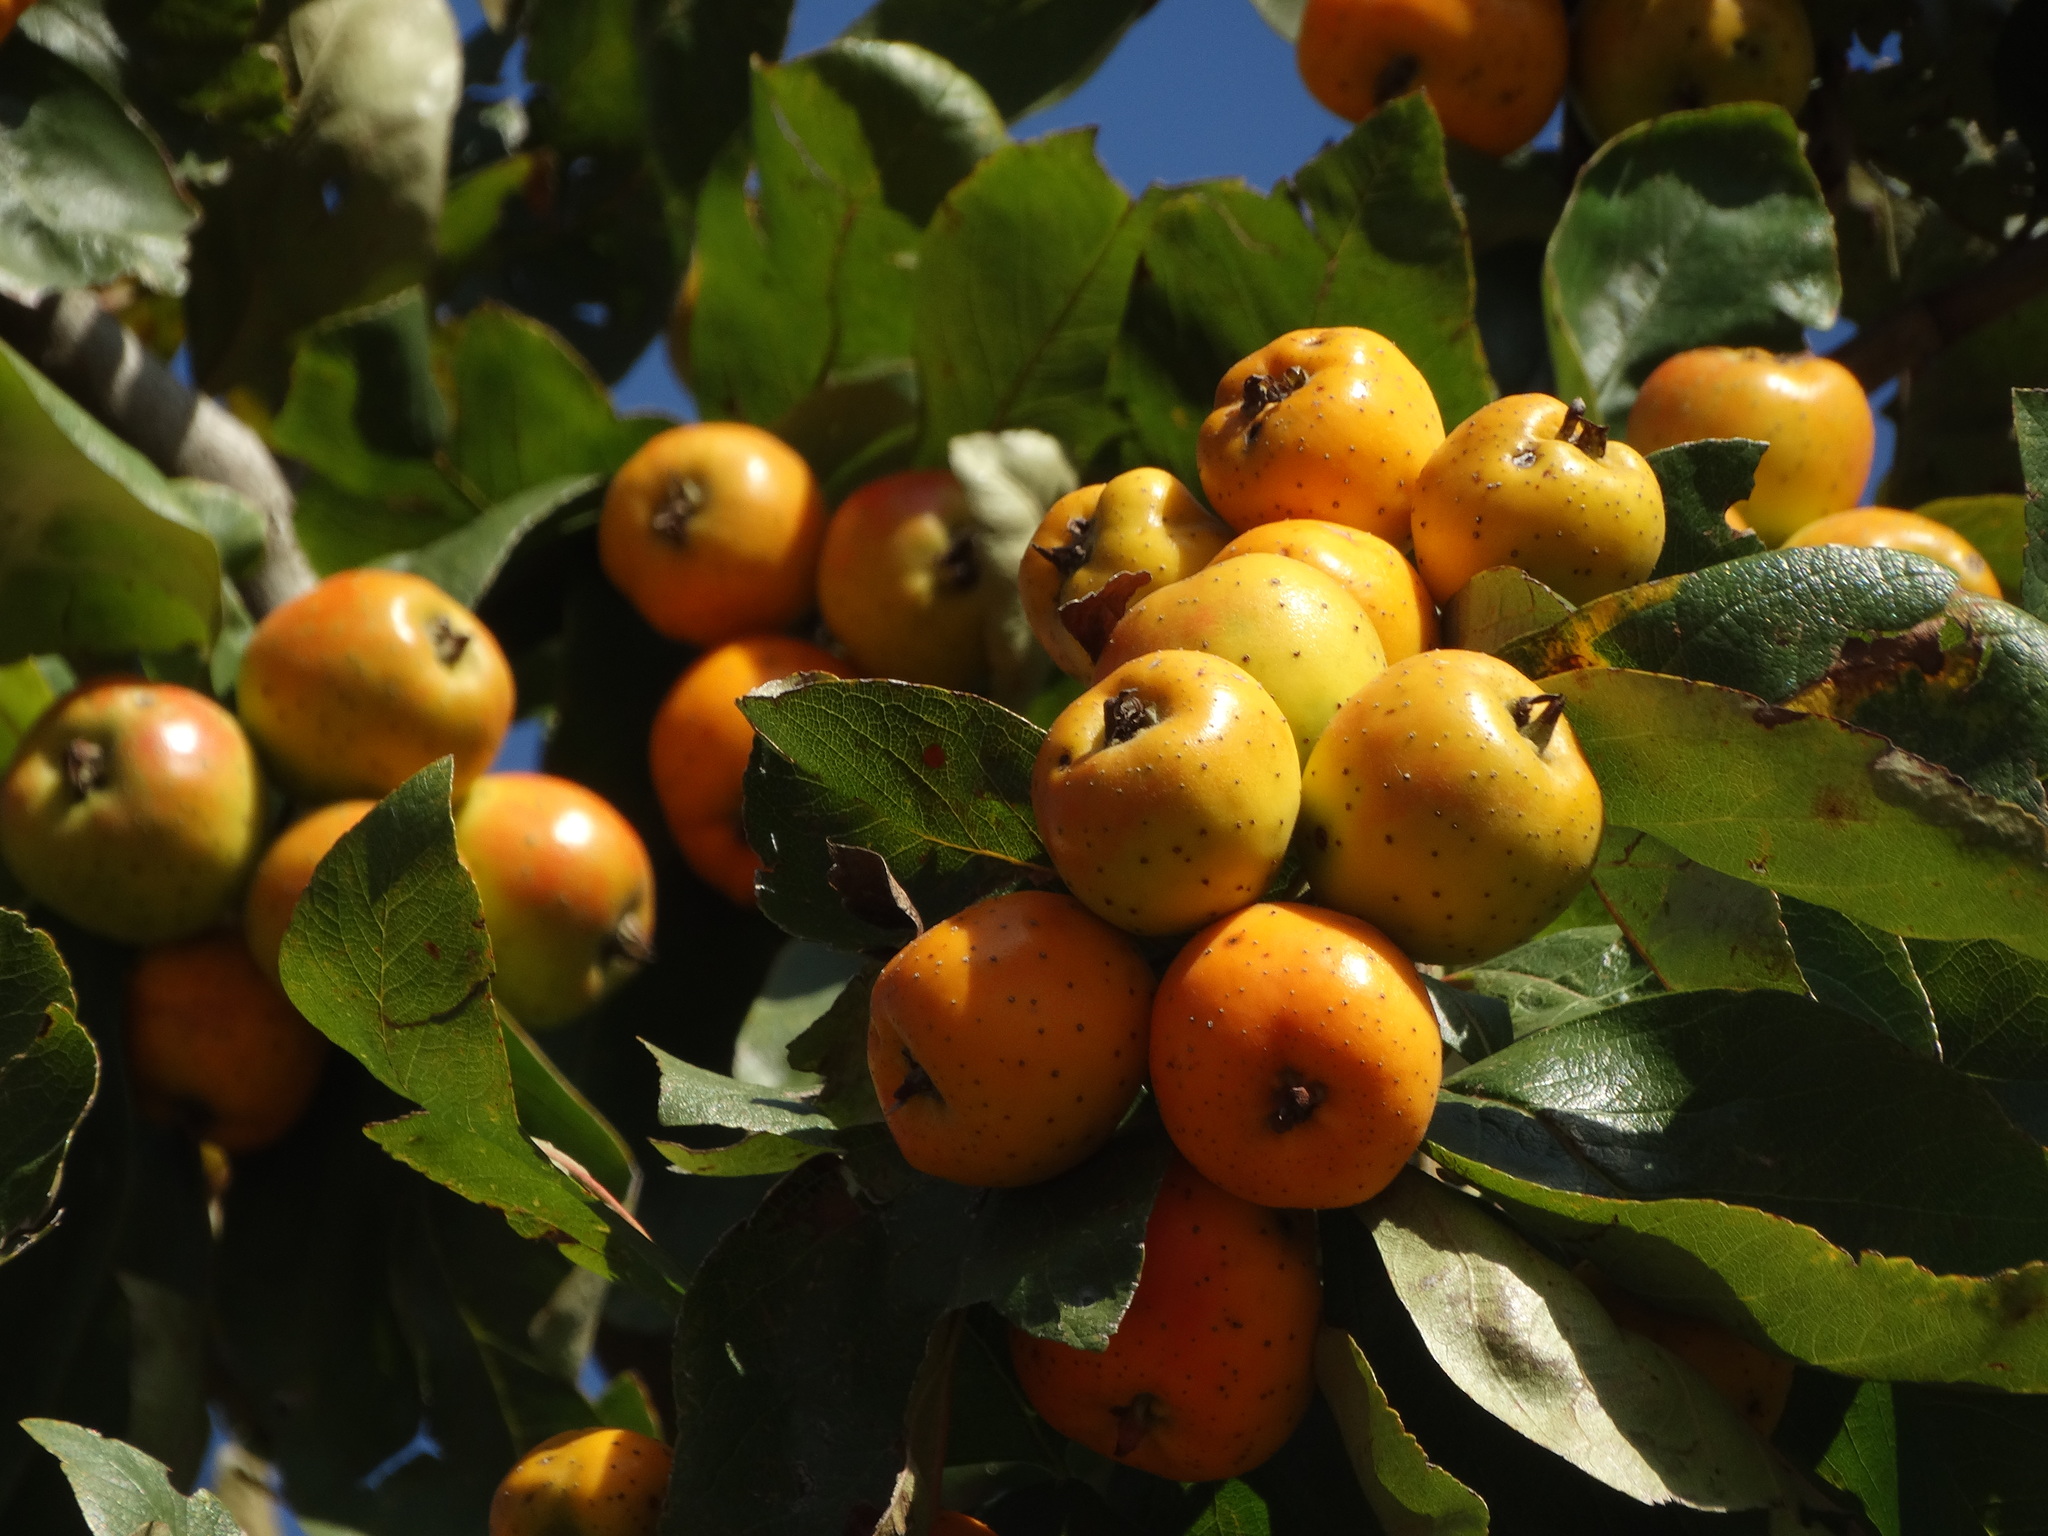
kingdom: Plantae
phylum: Tracheophyta
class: Magnoliopsida
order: Rosales
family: Rosaceae
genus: Crataegus
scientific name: Crataegus mexicana
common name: Mexican hawthorn
